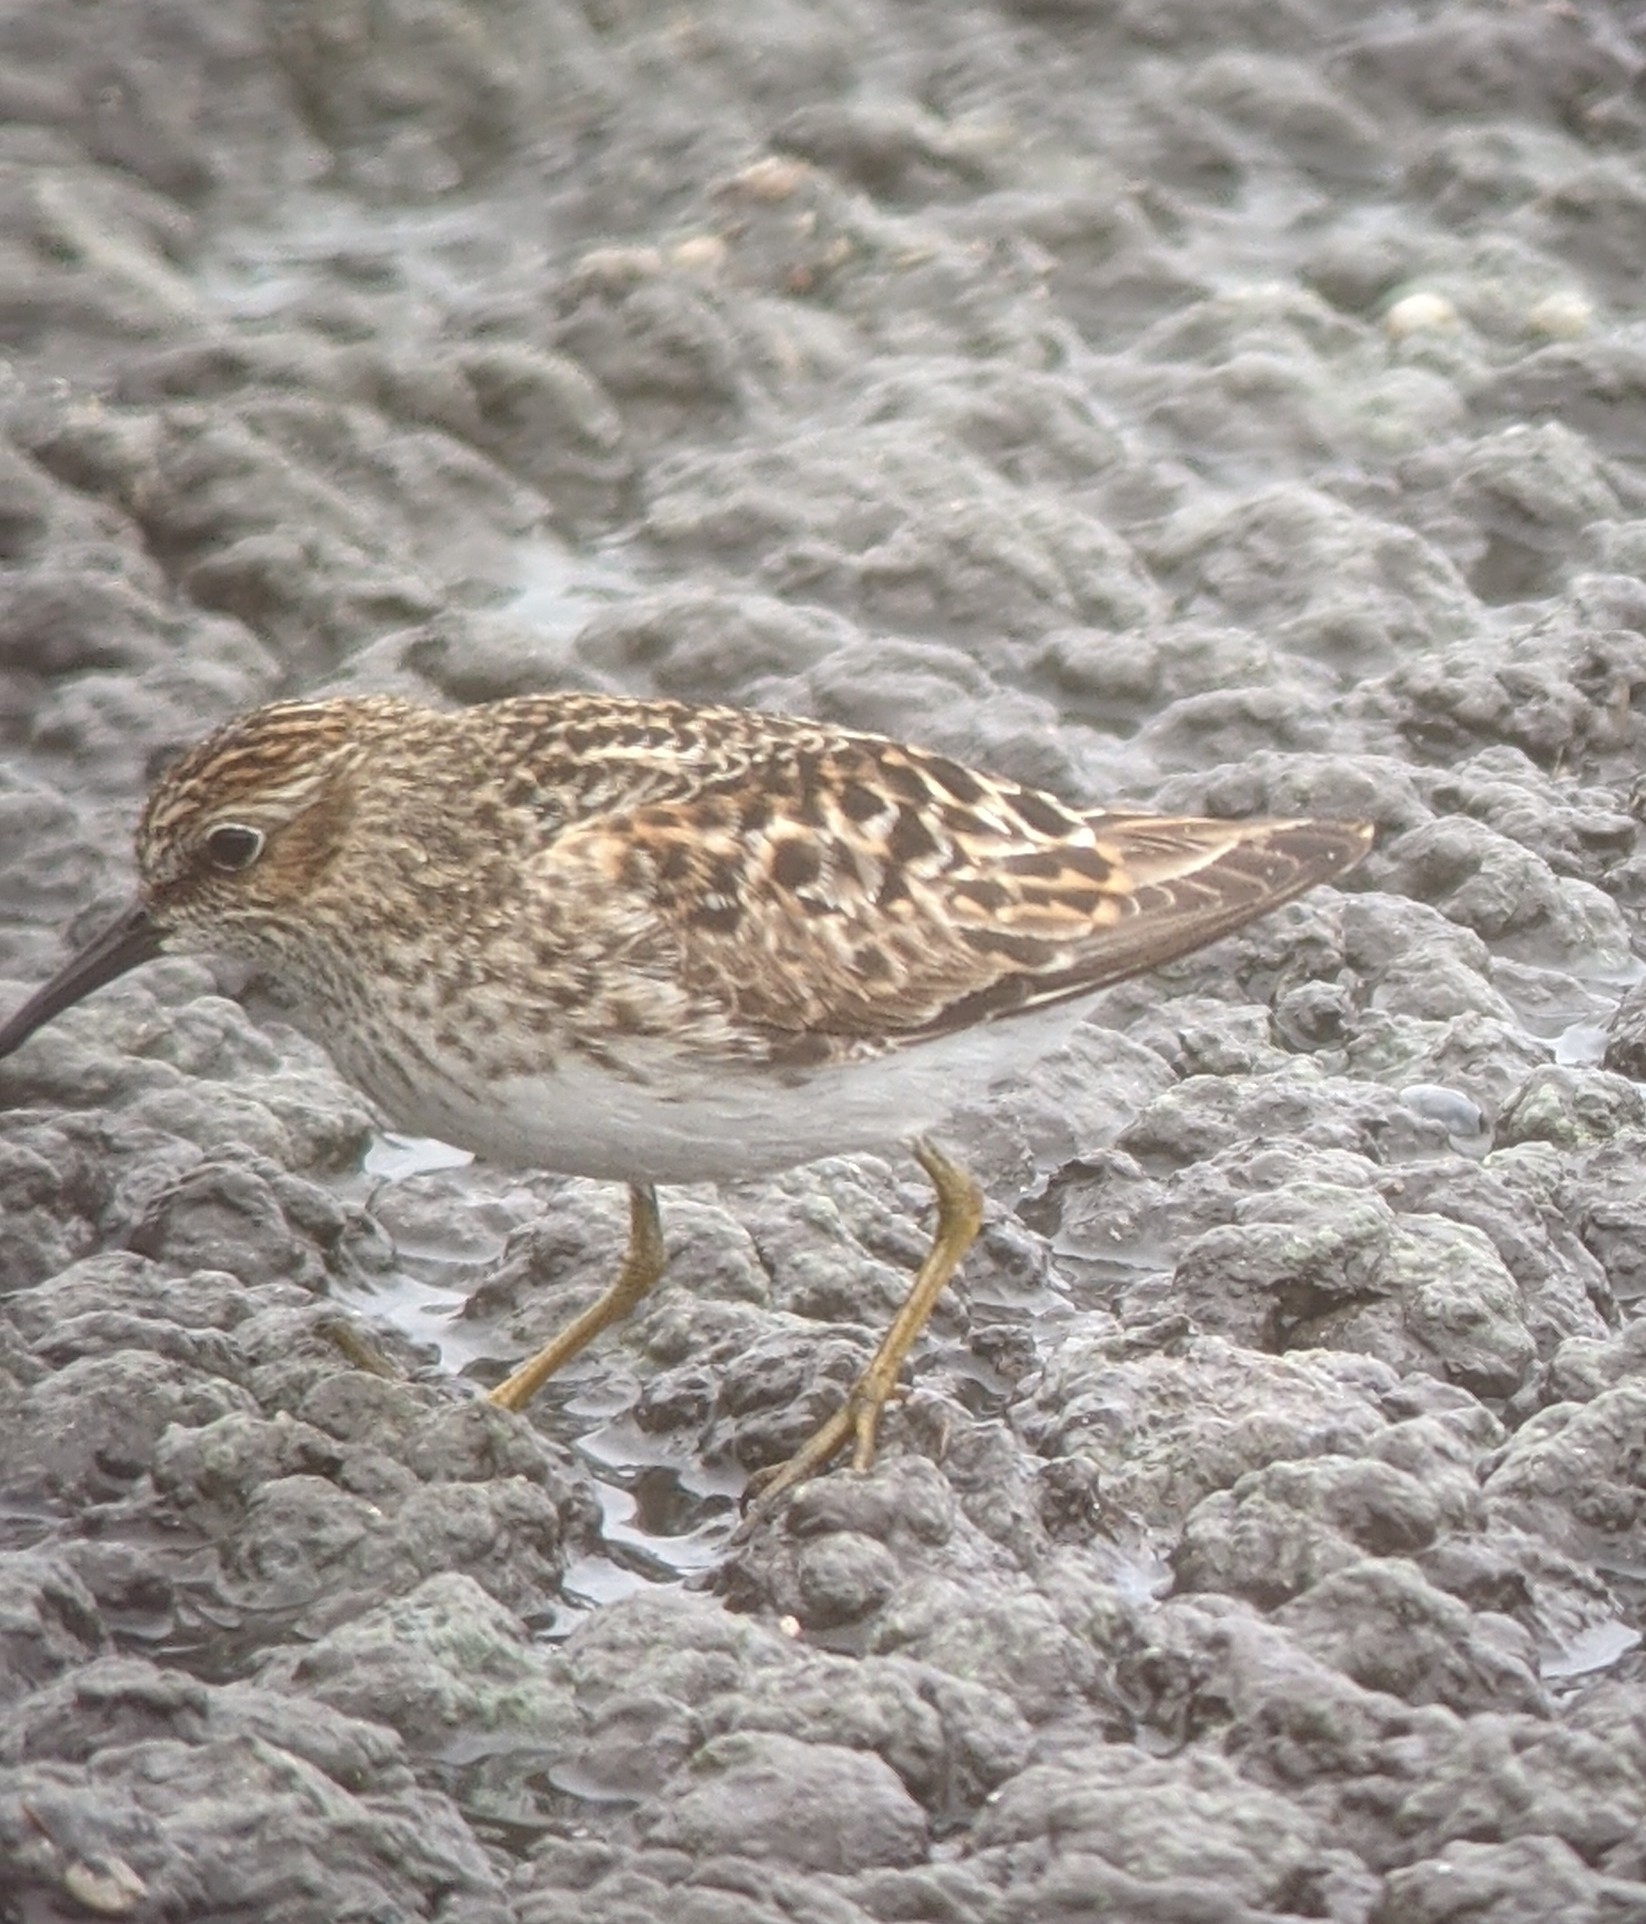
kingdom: Animalia
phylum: Chordata
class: Aves
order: Charadriiformes
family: Scolopacidae
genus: Calidris
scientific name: Calidris minutilla
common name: Least sandpiper
